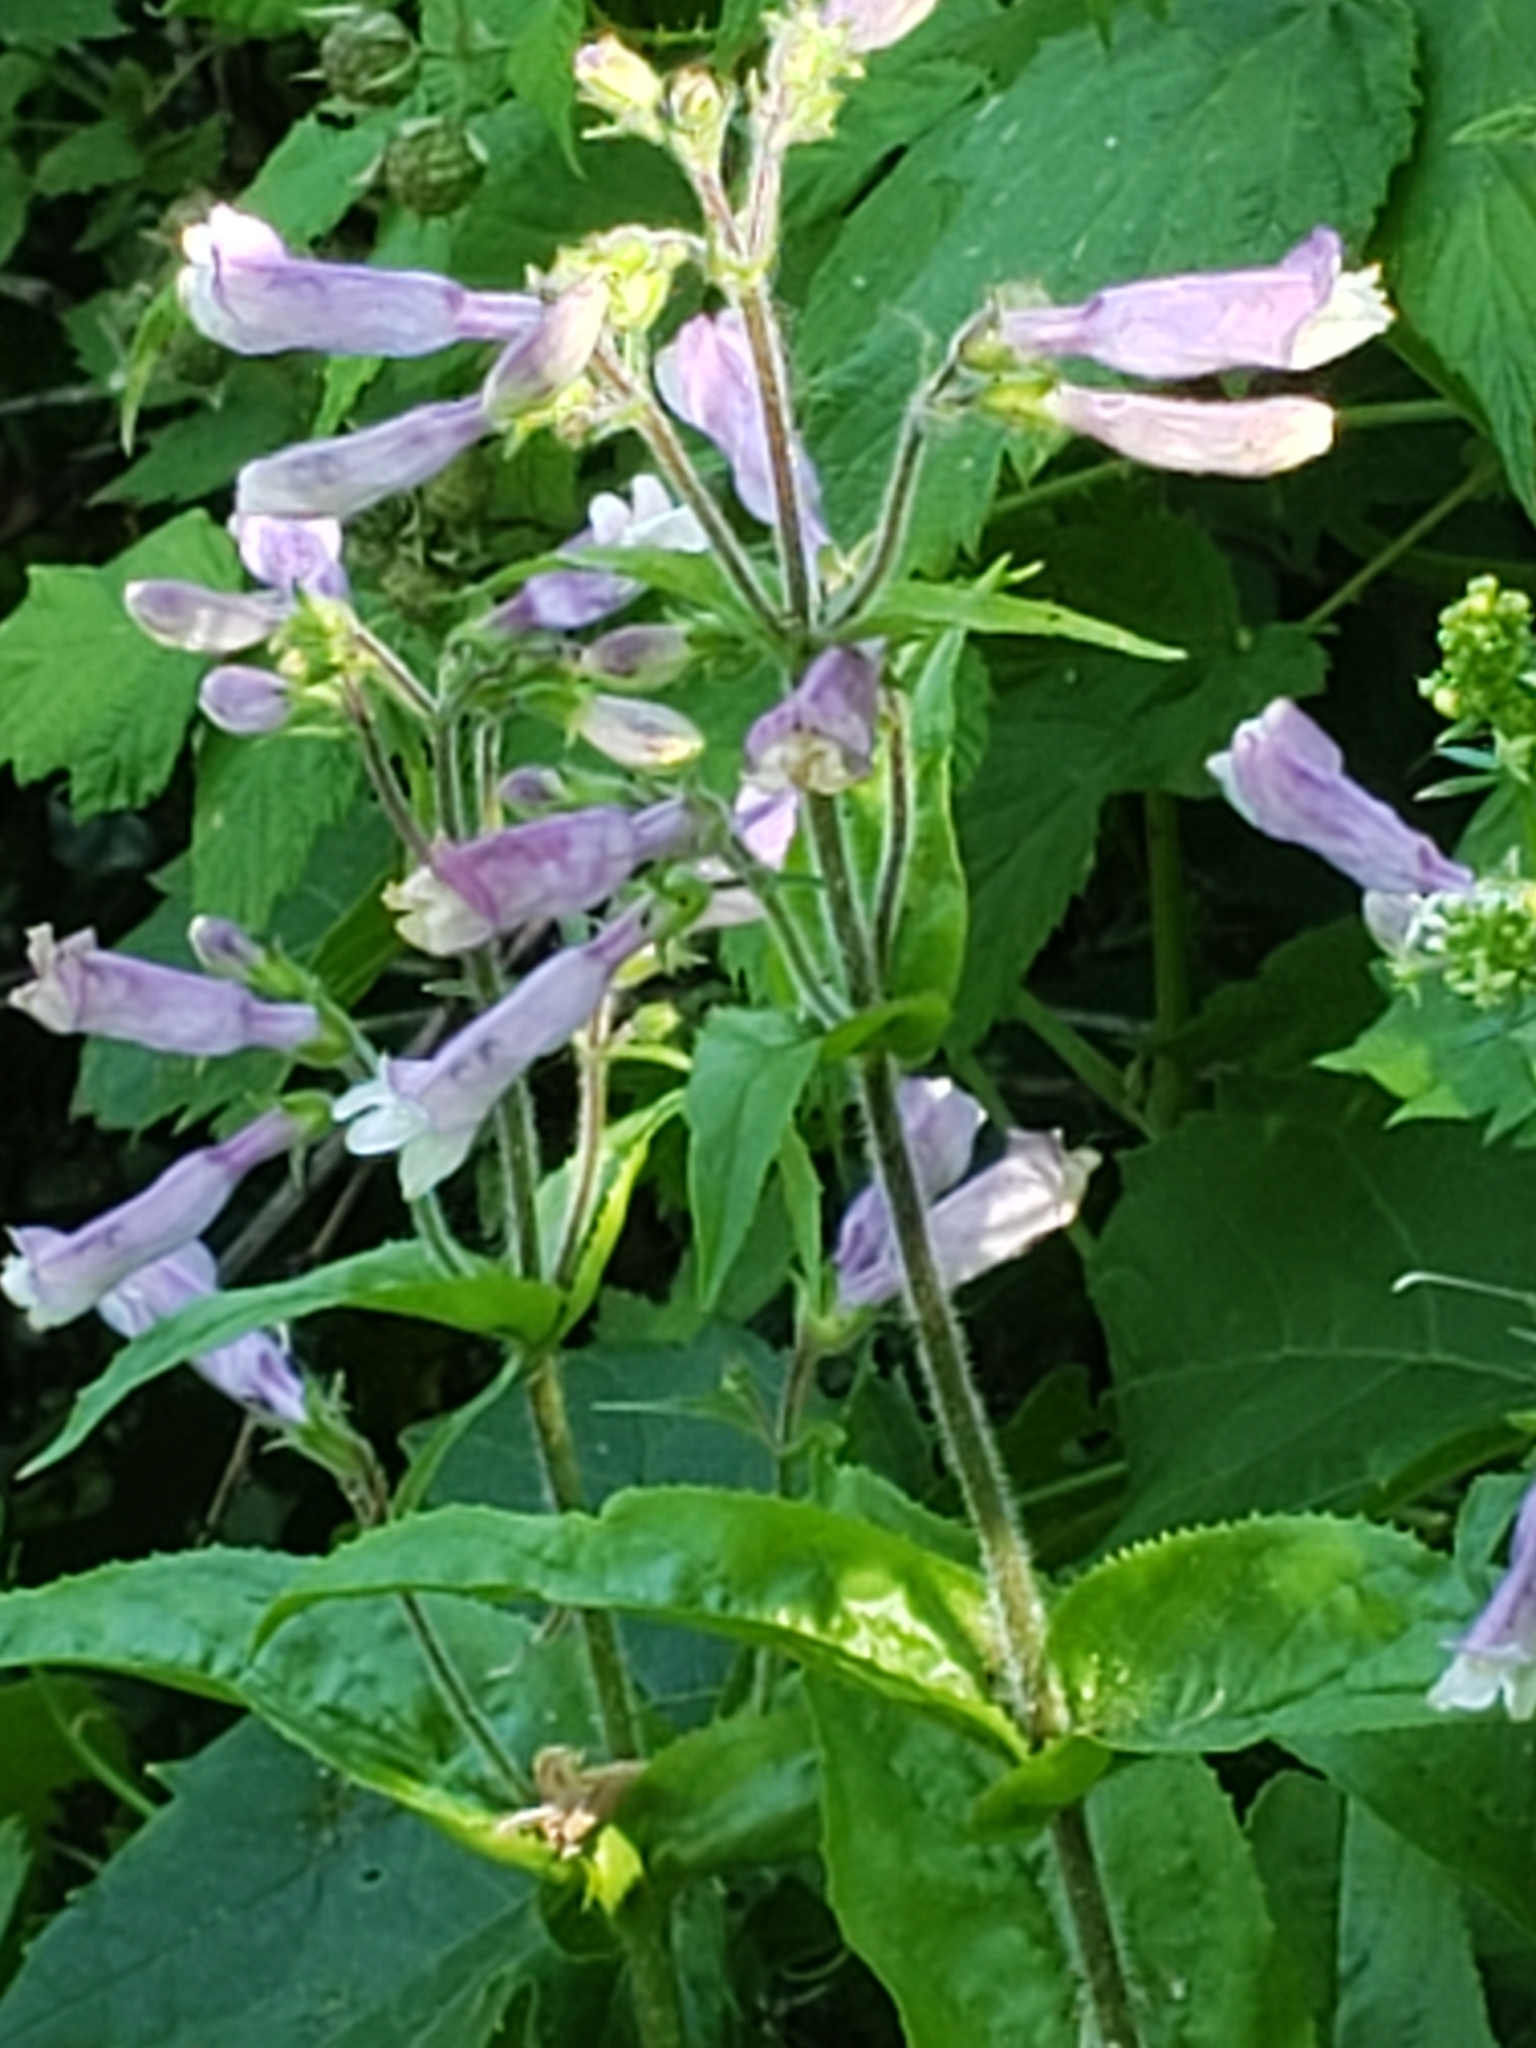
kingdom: Plantae
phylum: Tracheophyta
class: Magnoliopsida
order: Lamiales
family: Plantaginaceae
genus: Penstemon
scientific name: Penstemon hirsutus
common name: Hairy beardtongue
